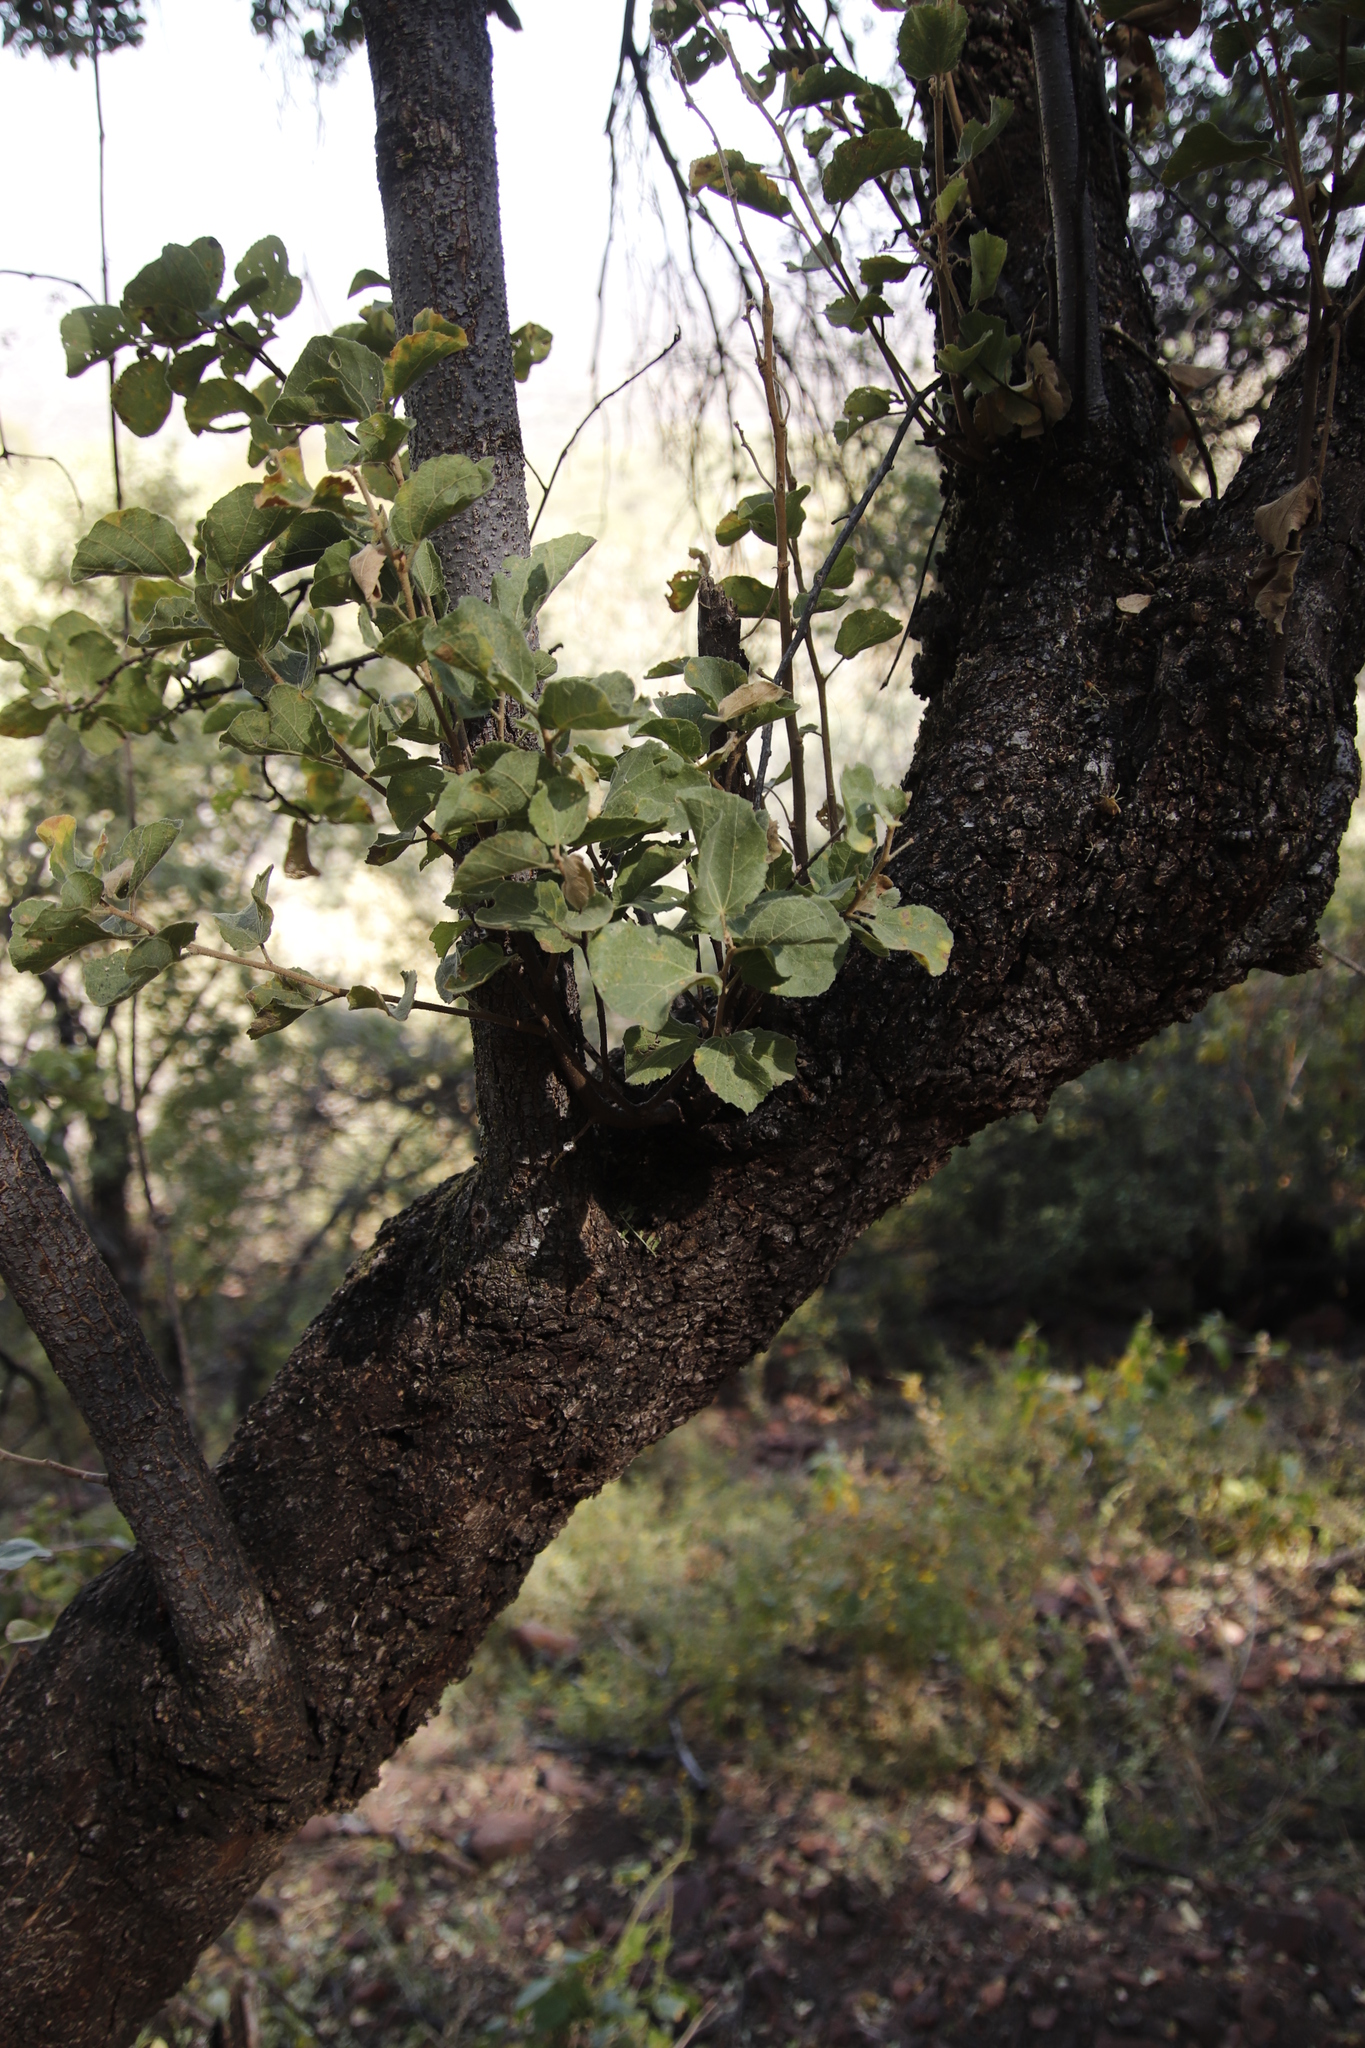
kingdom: Plantae
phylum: Tracheophyta
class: Magnoliopsida
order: Malvales
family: Malvaceae
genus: Dombeya
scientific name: Dombeya rotundifolia
